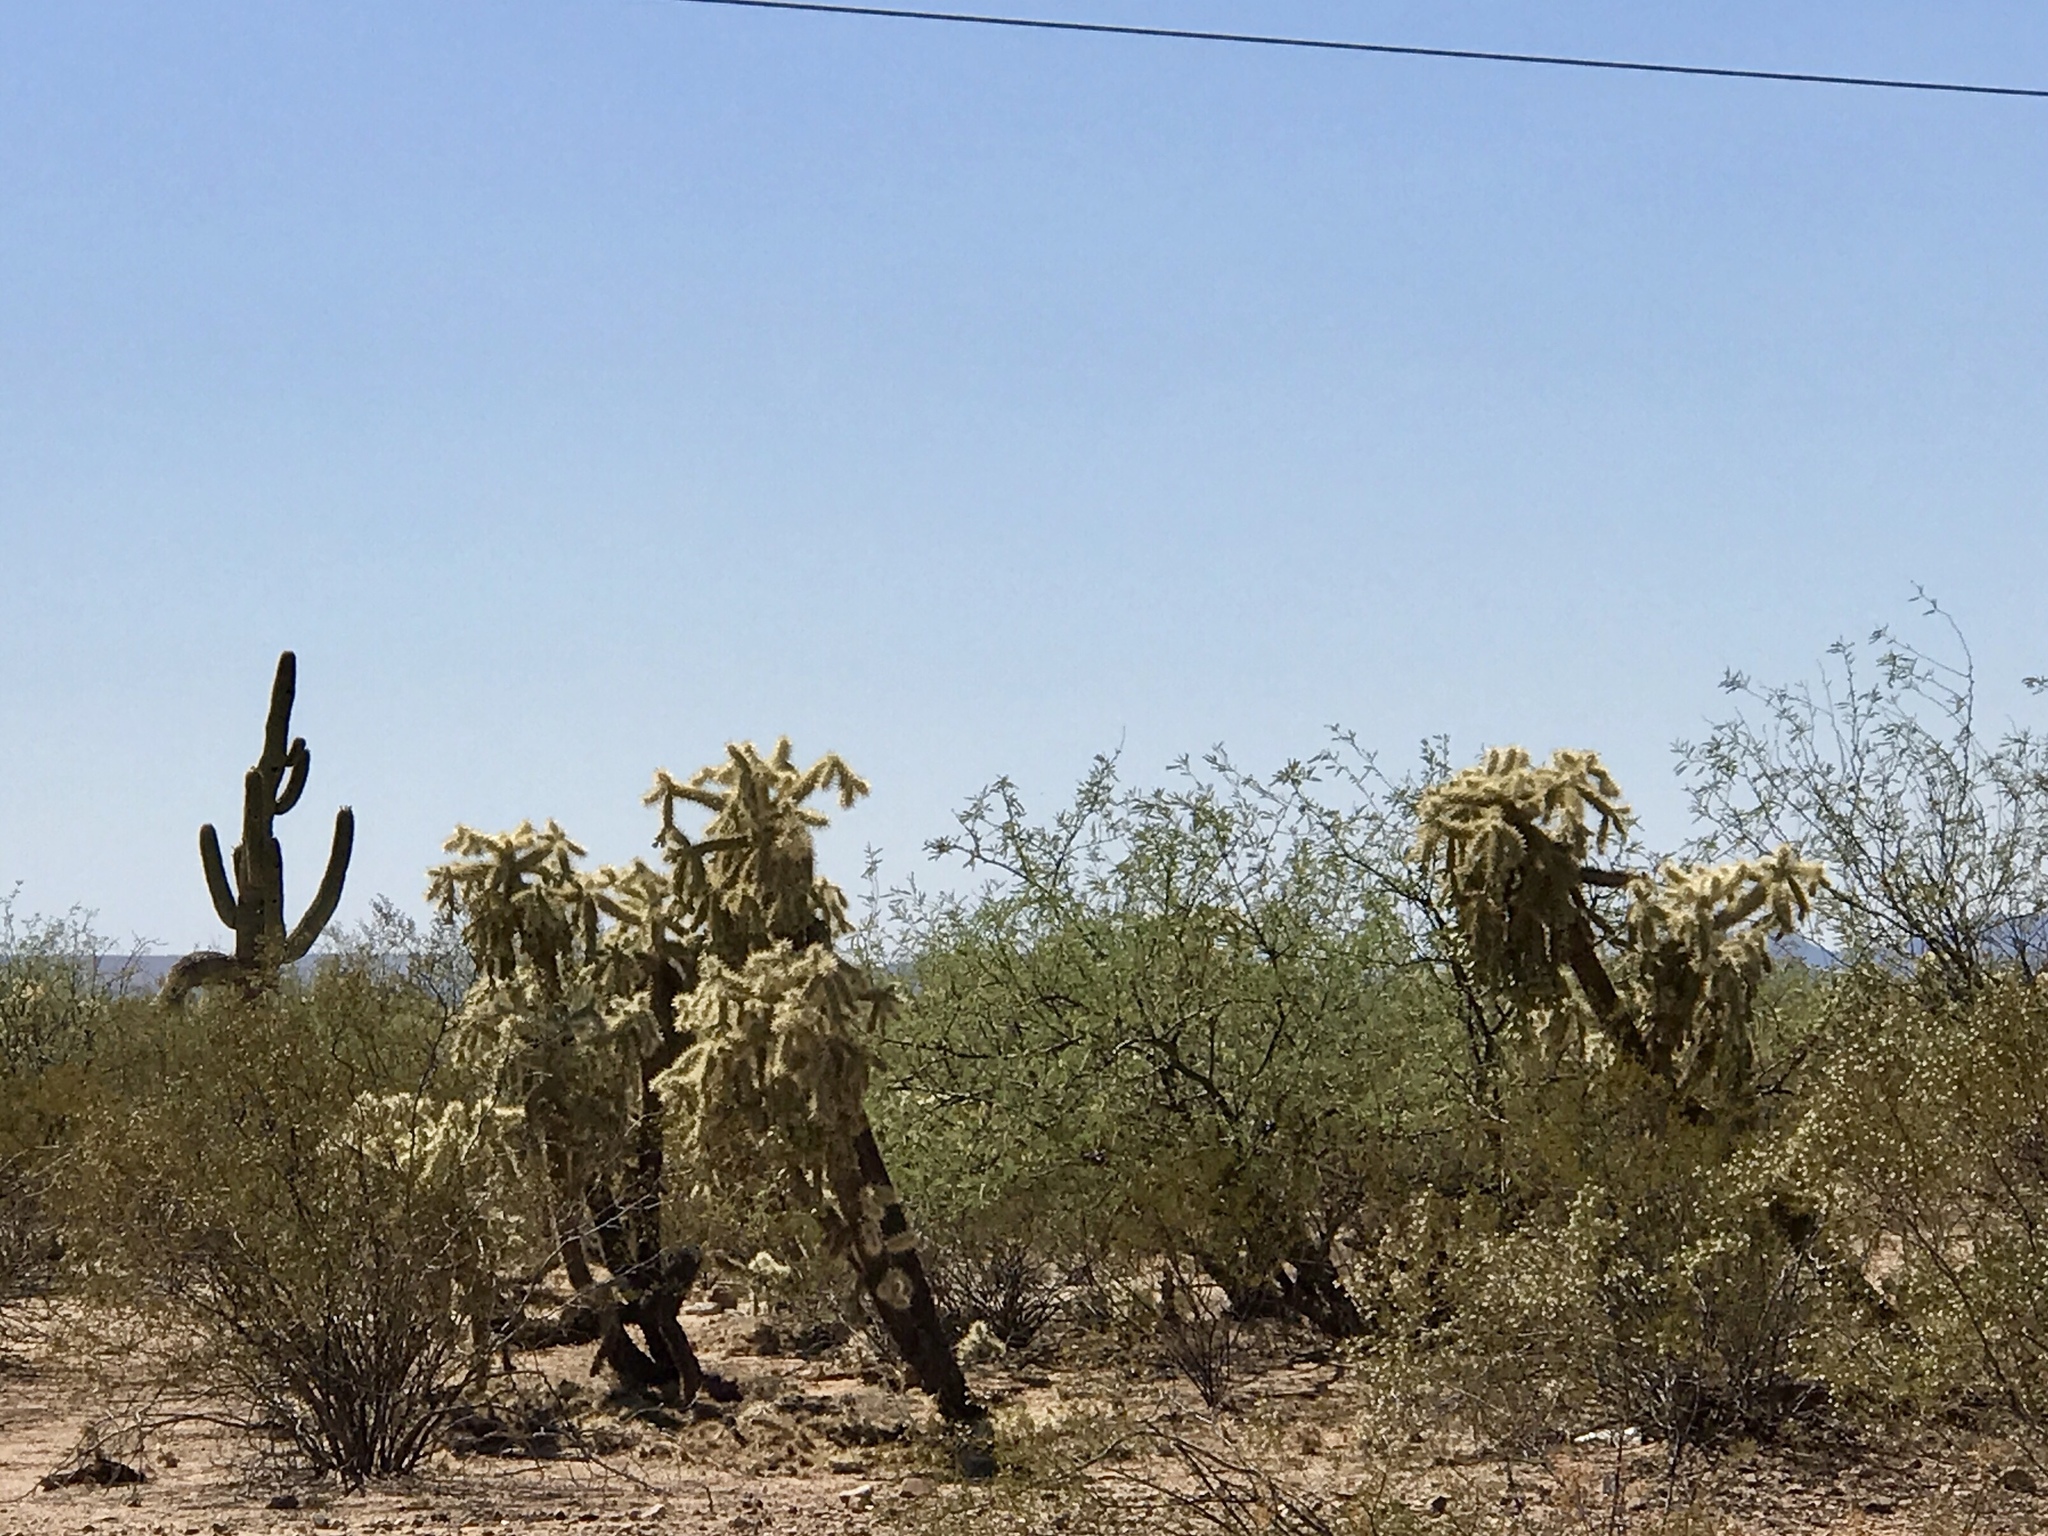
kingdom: Plantae
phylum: Tracheophyta
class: Magnoliopsida
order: Caryophyllales
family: Cactaceae
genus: Cylindropuntia
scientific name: Cylindropuntia fulgida
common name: Jumping cholla
